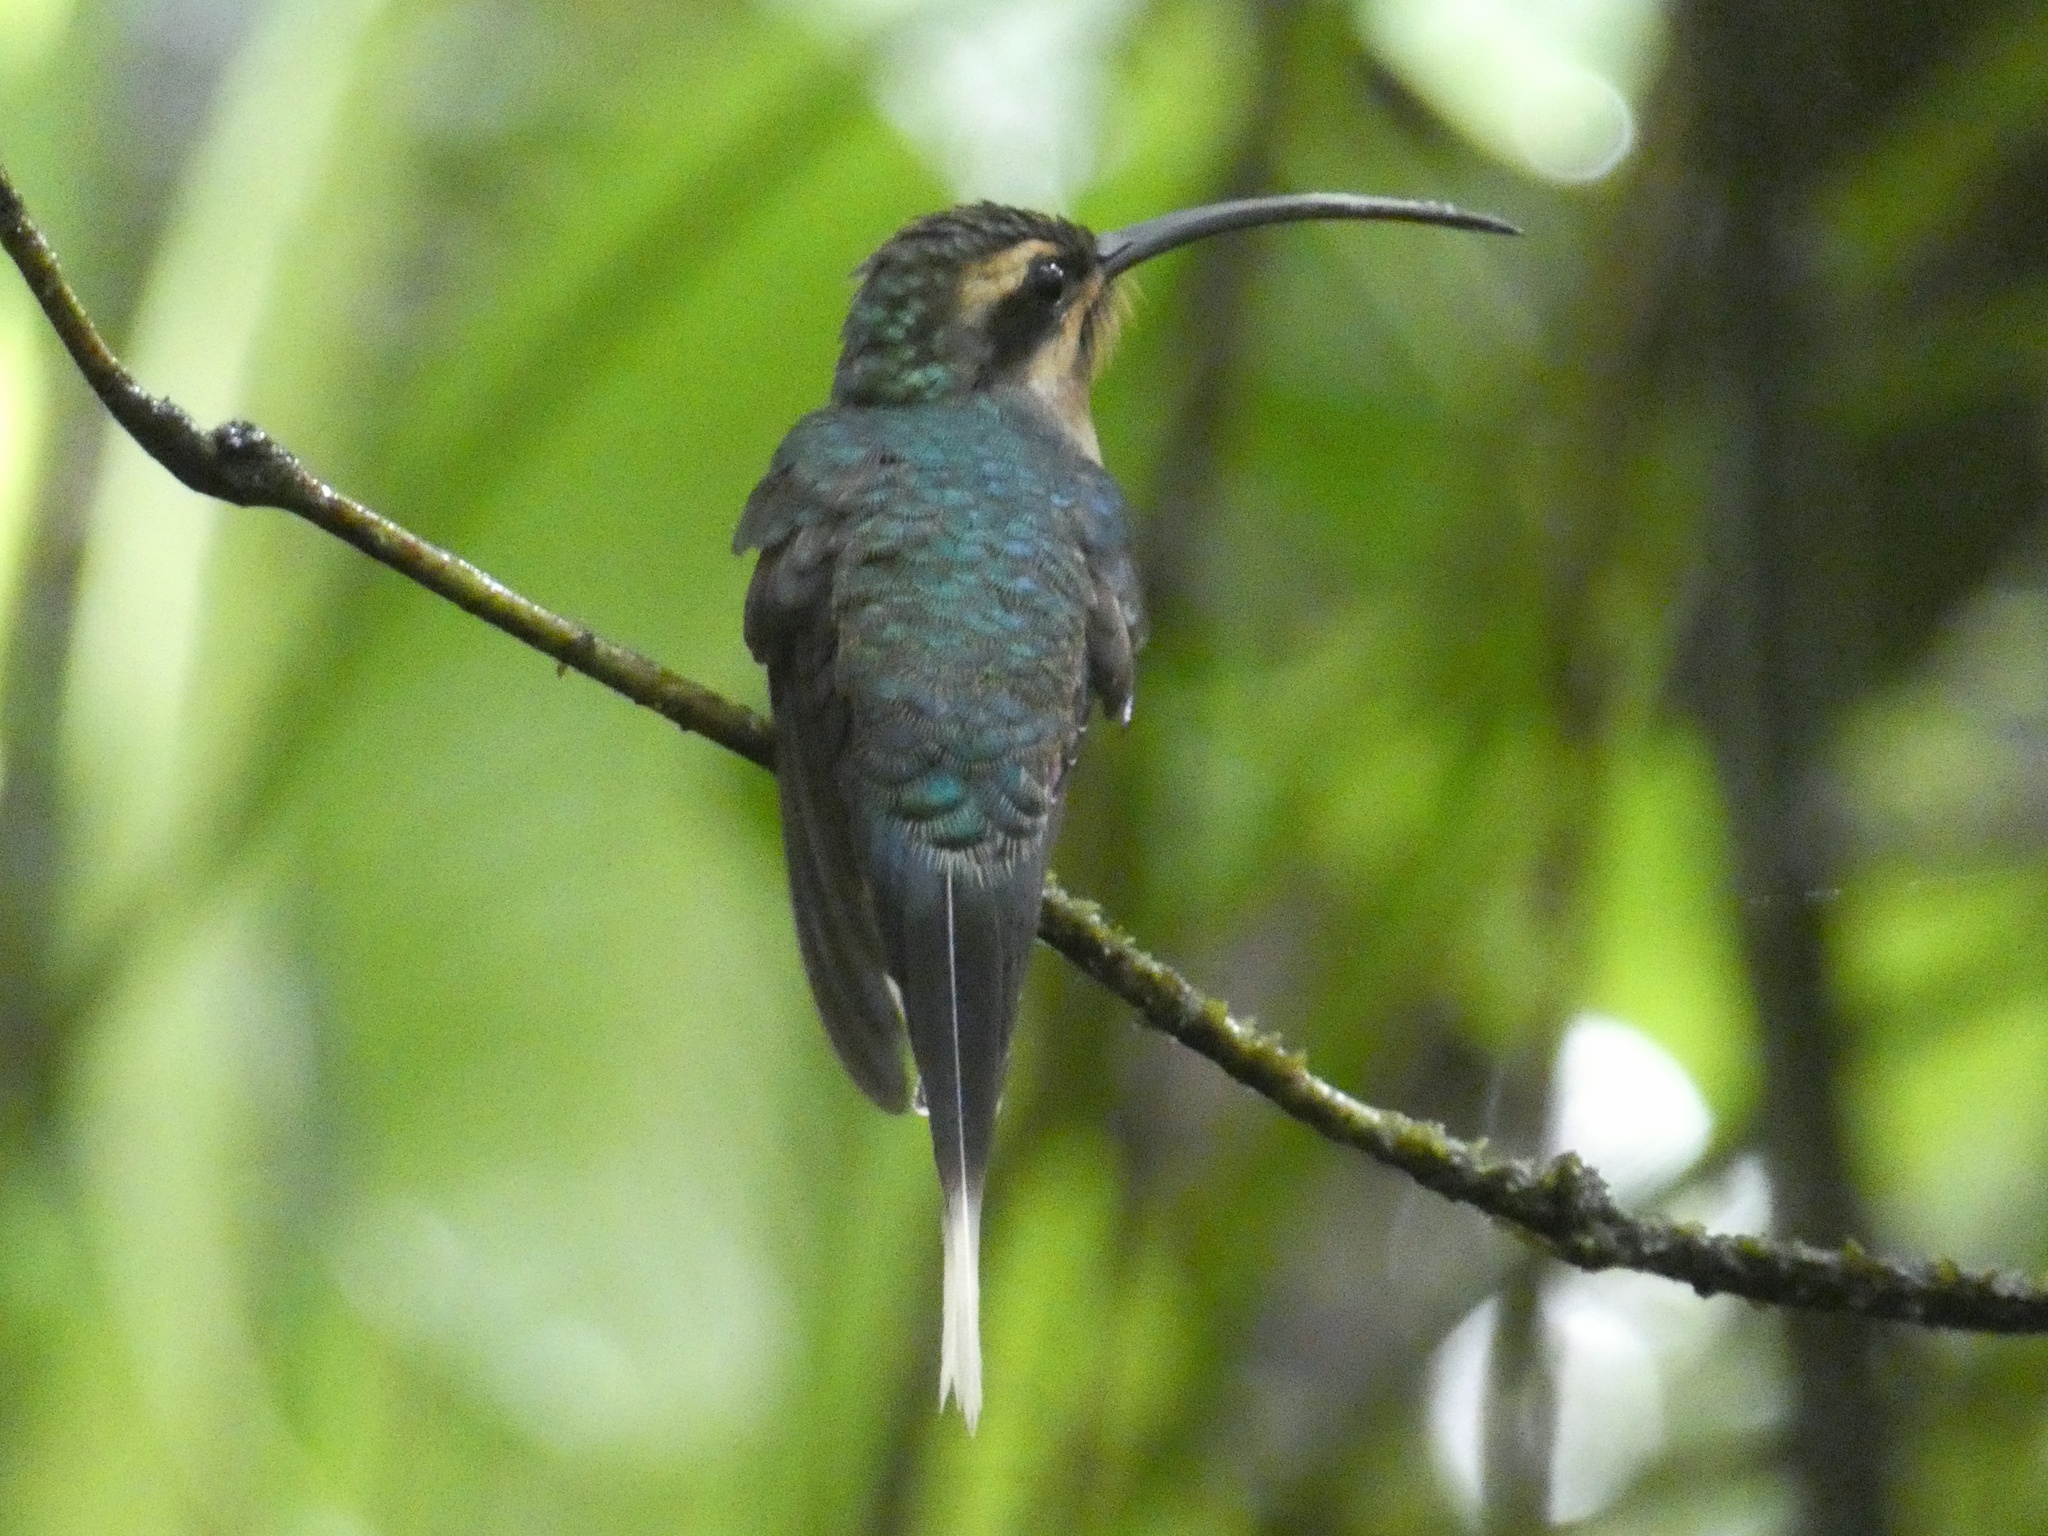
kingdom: Animalia
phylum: Chordata
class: Aves
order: Apodiformes
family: Trochilidae
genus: Phaethornis
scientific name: Phaethornis guy
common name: Green hermit
